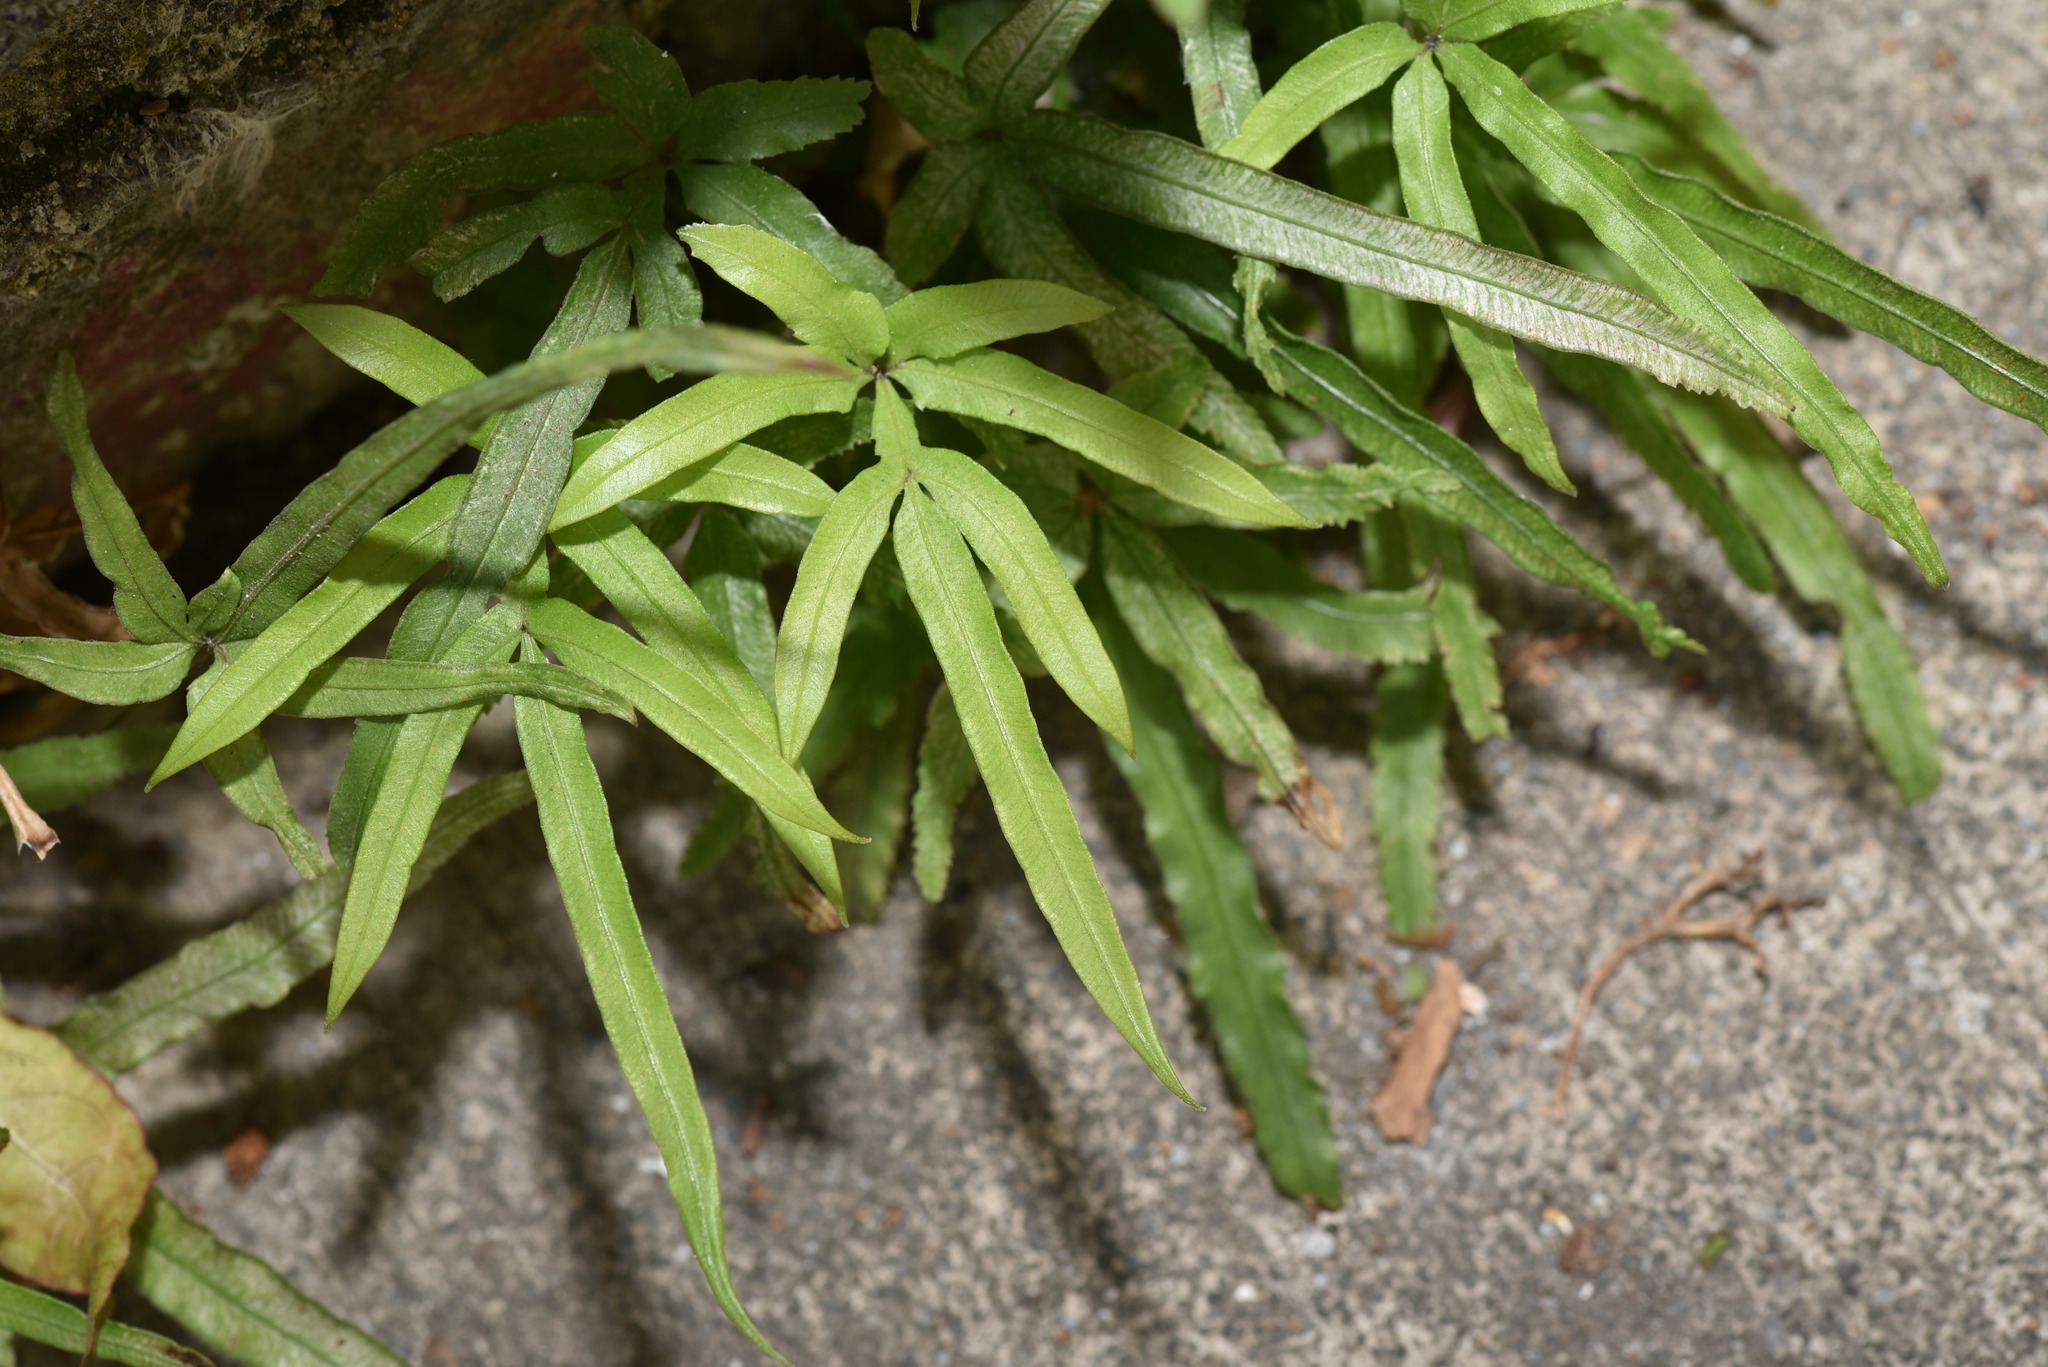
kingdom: Plantae
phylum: Tracheophyta
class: Polypodiopsida
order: Polypodiales
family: Pteridaceae
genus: Pteris
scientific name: Pteris multifida
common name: Spider brake
